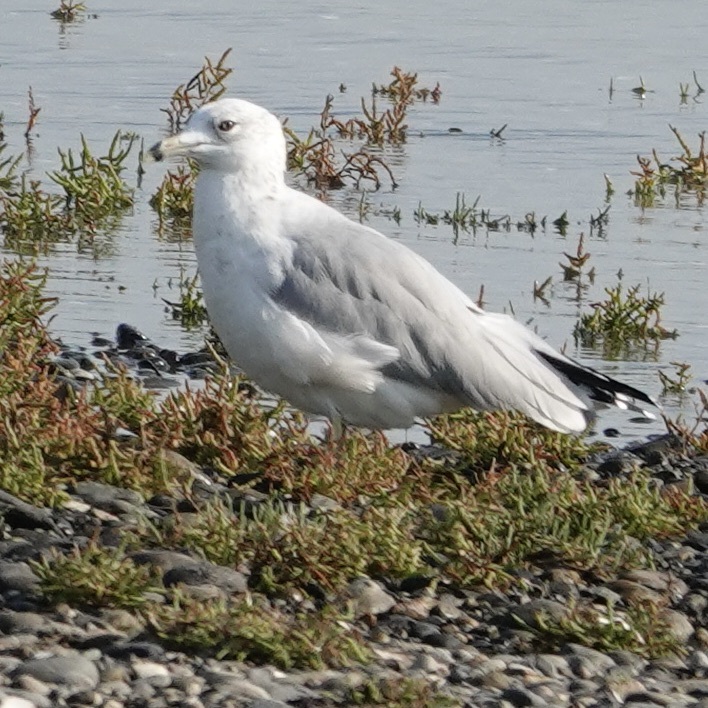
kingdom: Animalia
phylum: Chordata
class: Aves
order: Charadriiformes
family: Laridae
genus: Larus
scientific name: Larus delawarensis
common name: Ring-billed gull
